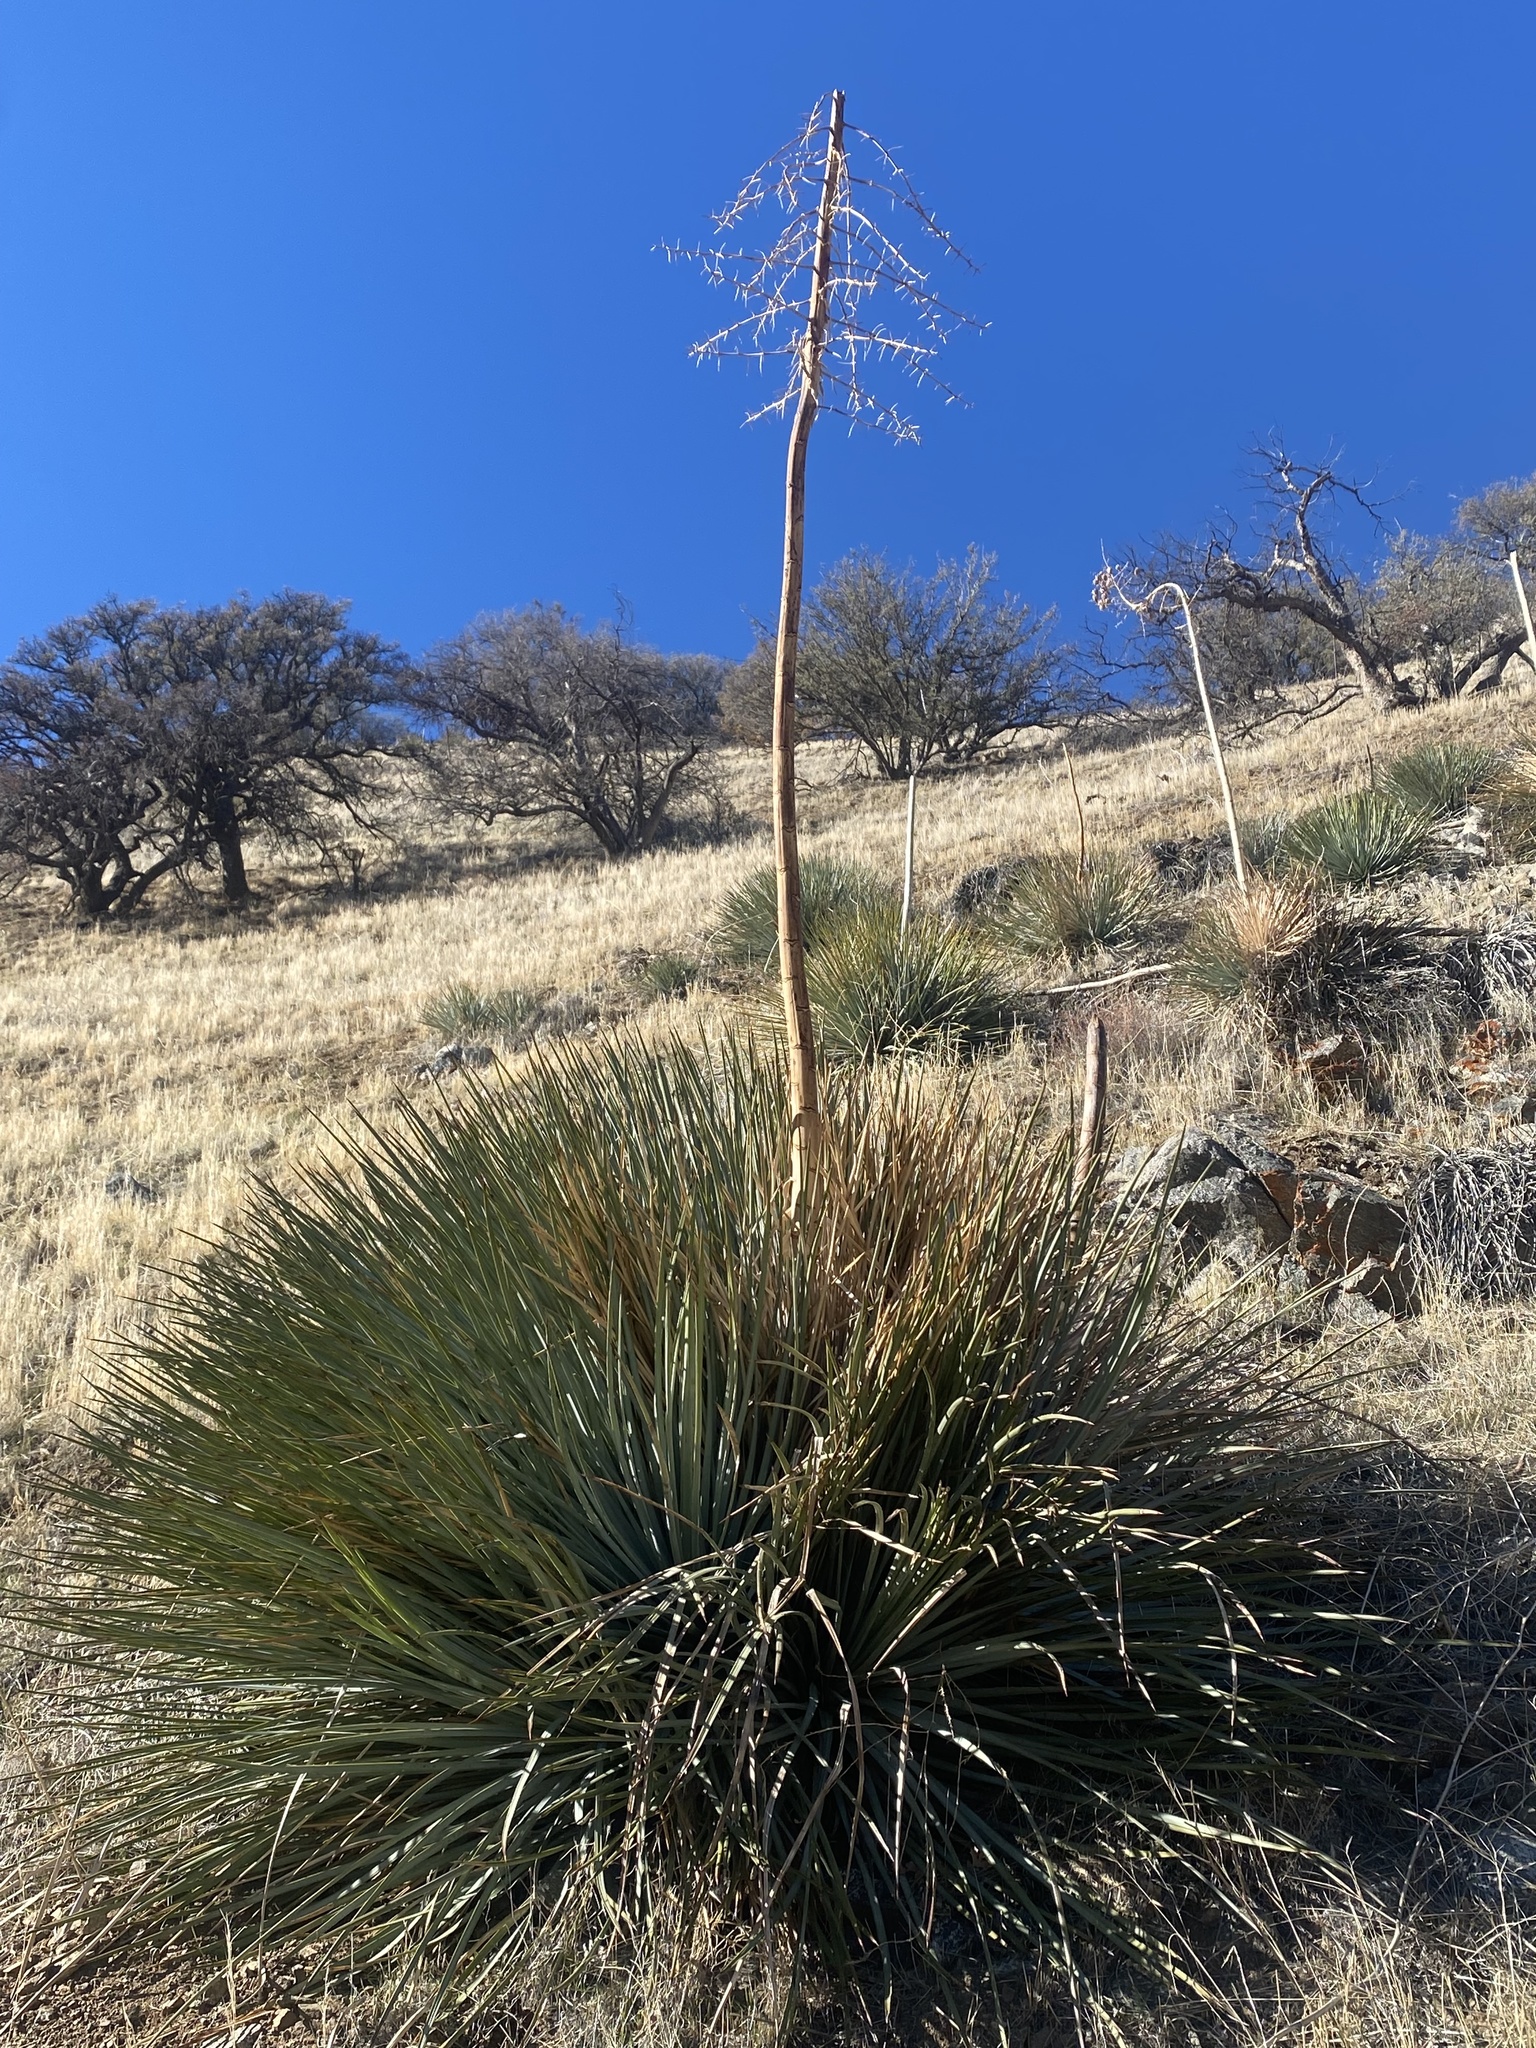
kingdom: Plantae
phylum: Tracheophyta
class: Liliopsida
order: Asparagales
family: Asparagaceae
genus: Hesperoyucca
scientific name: Hesperoyucca whipplei
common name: Our lord's-candle
